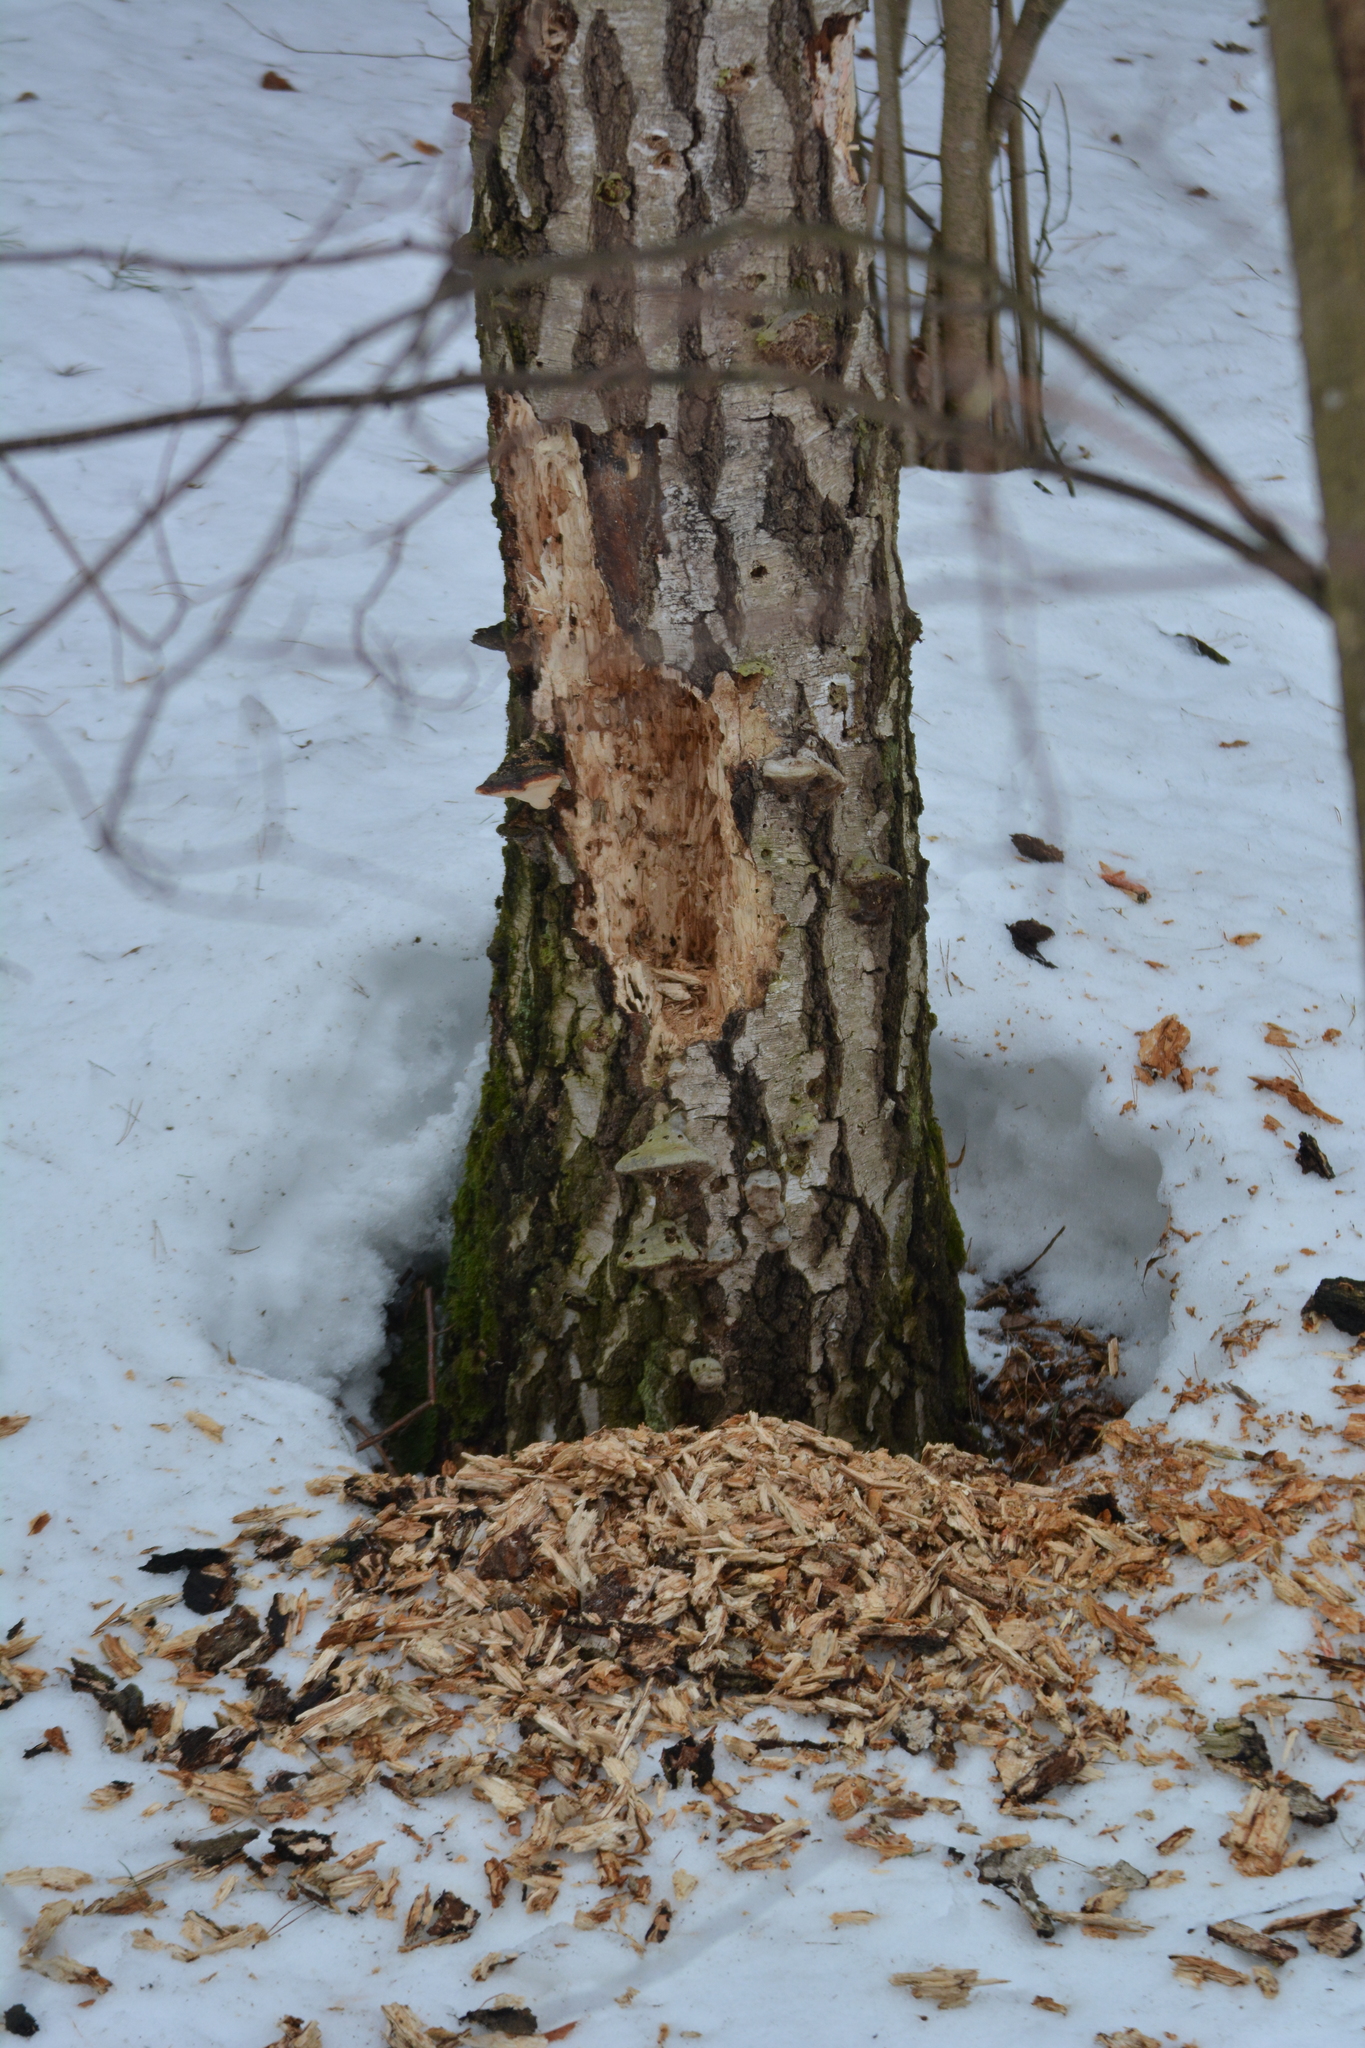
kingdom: Animalia
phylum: Chordata
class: Aves
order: Piciformes
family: Picidae
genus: Dryocopus
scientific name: Dryocopus martius
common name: Black woodpecker
